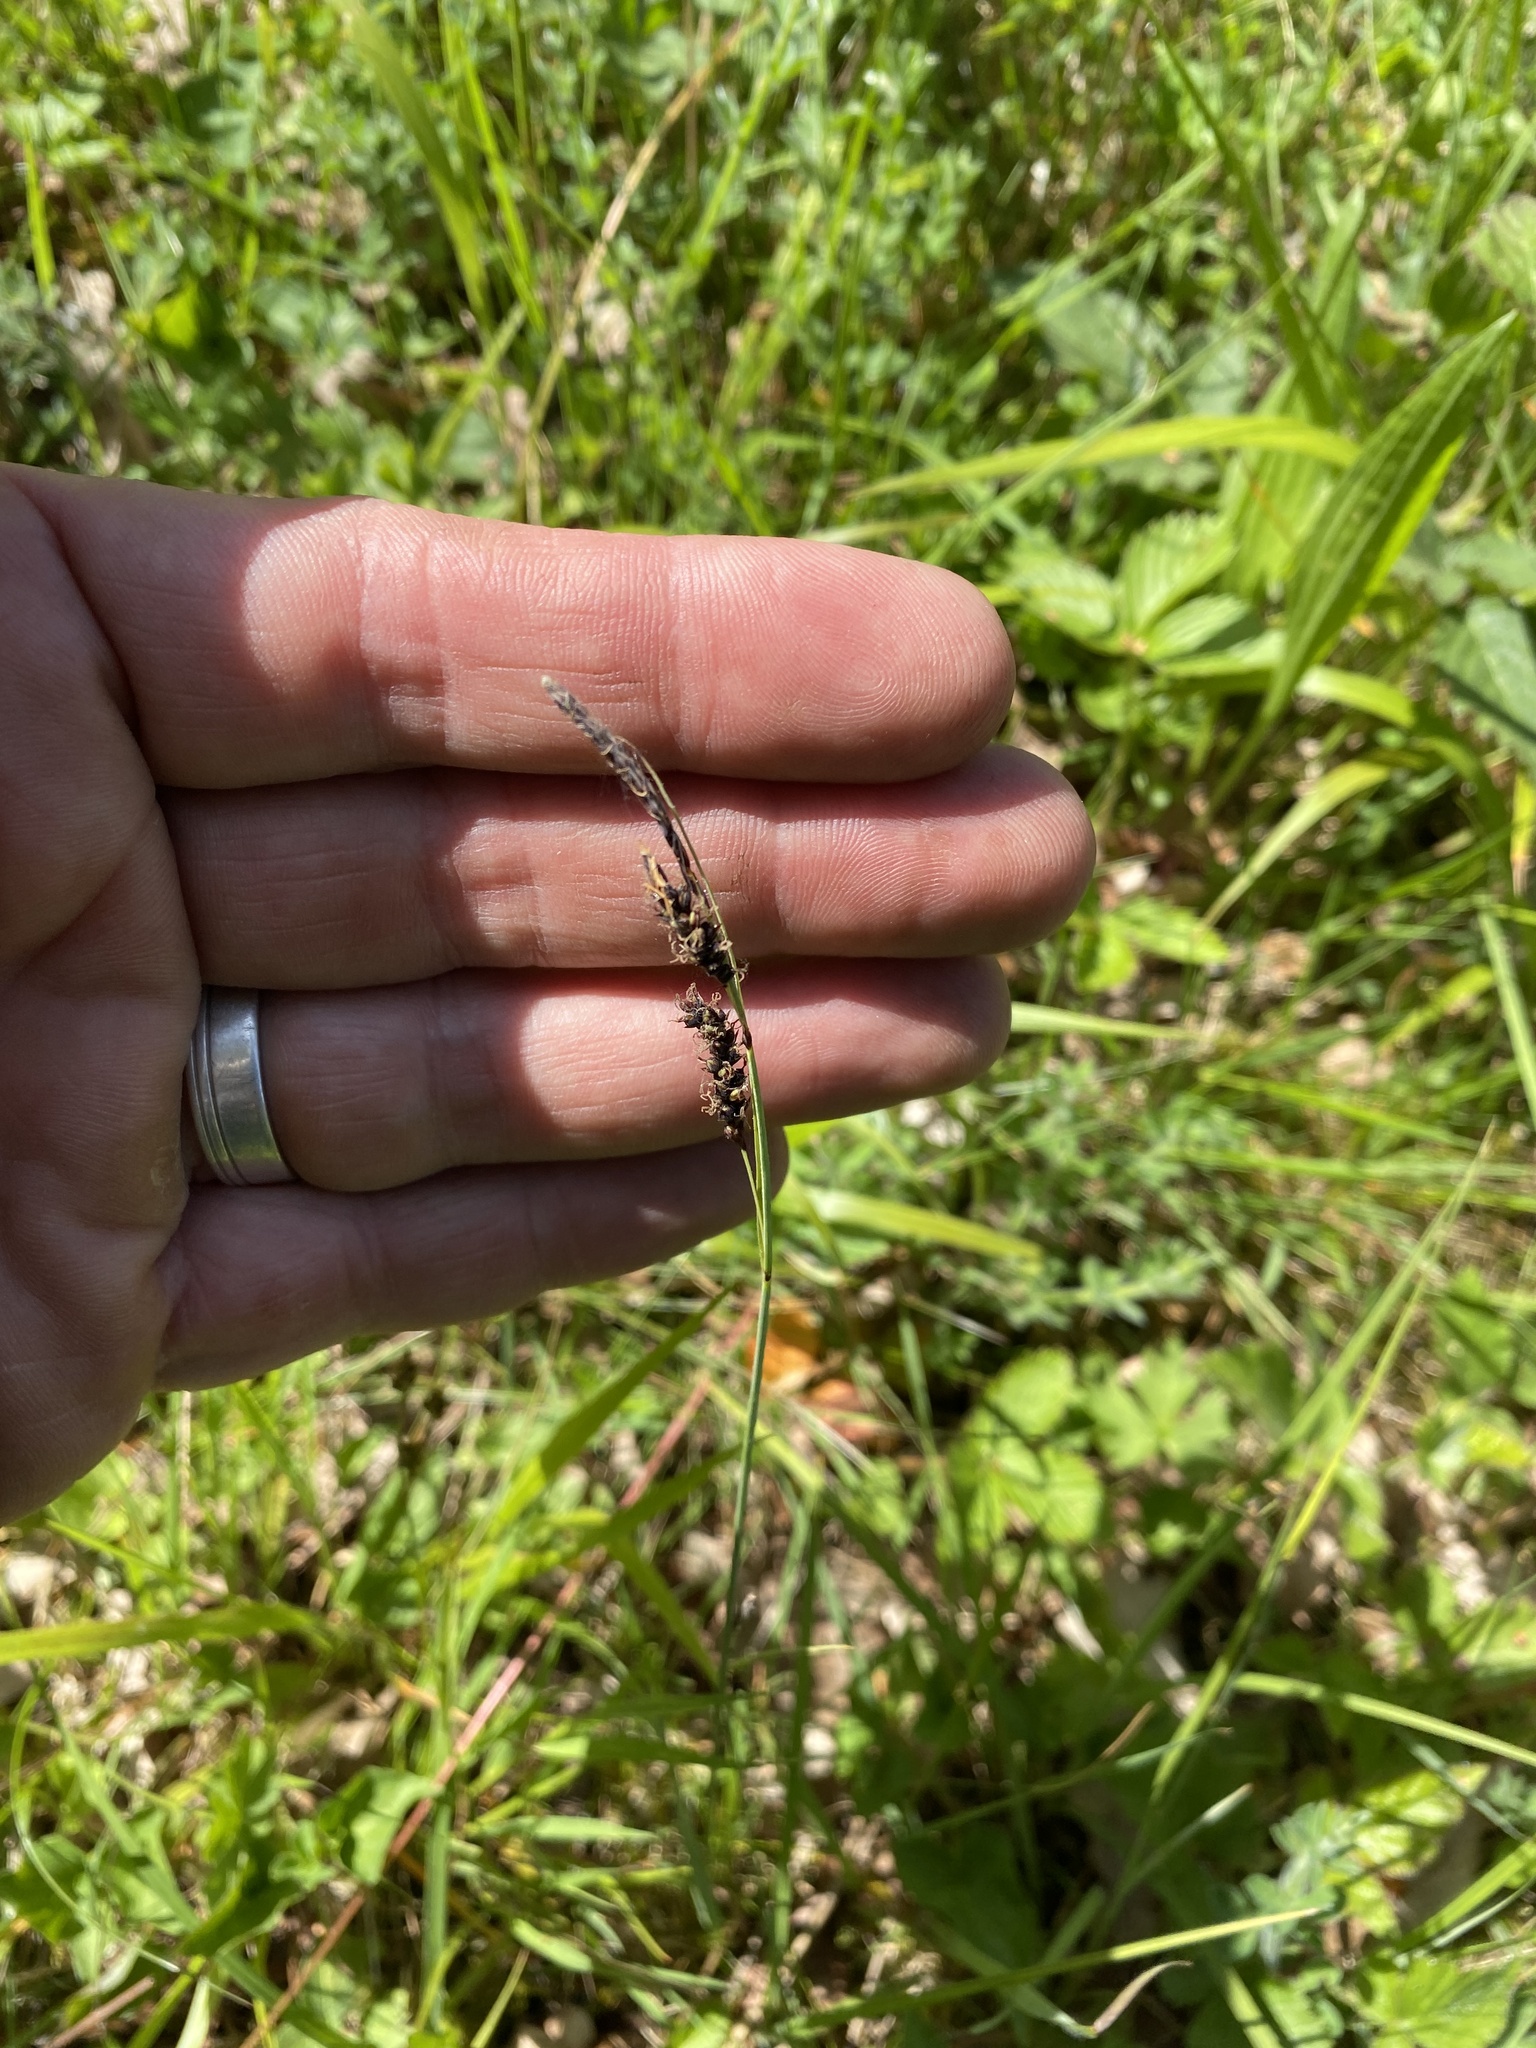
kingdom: Plantae
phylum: Tracheophyta
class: Liliopsida
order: Poales
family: Cyperaceae
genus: Carex
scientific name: Carex flacca
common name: Glaucous sedge
